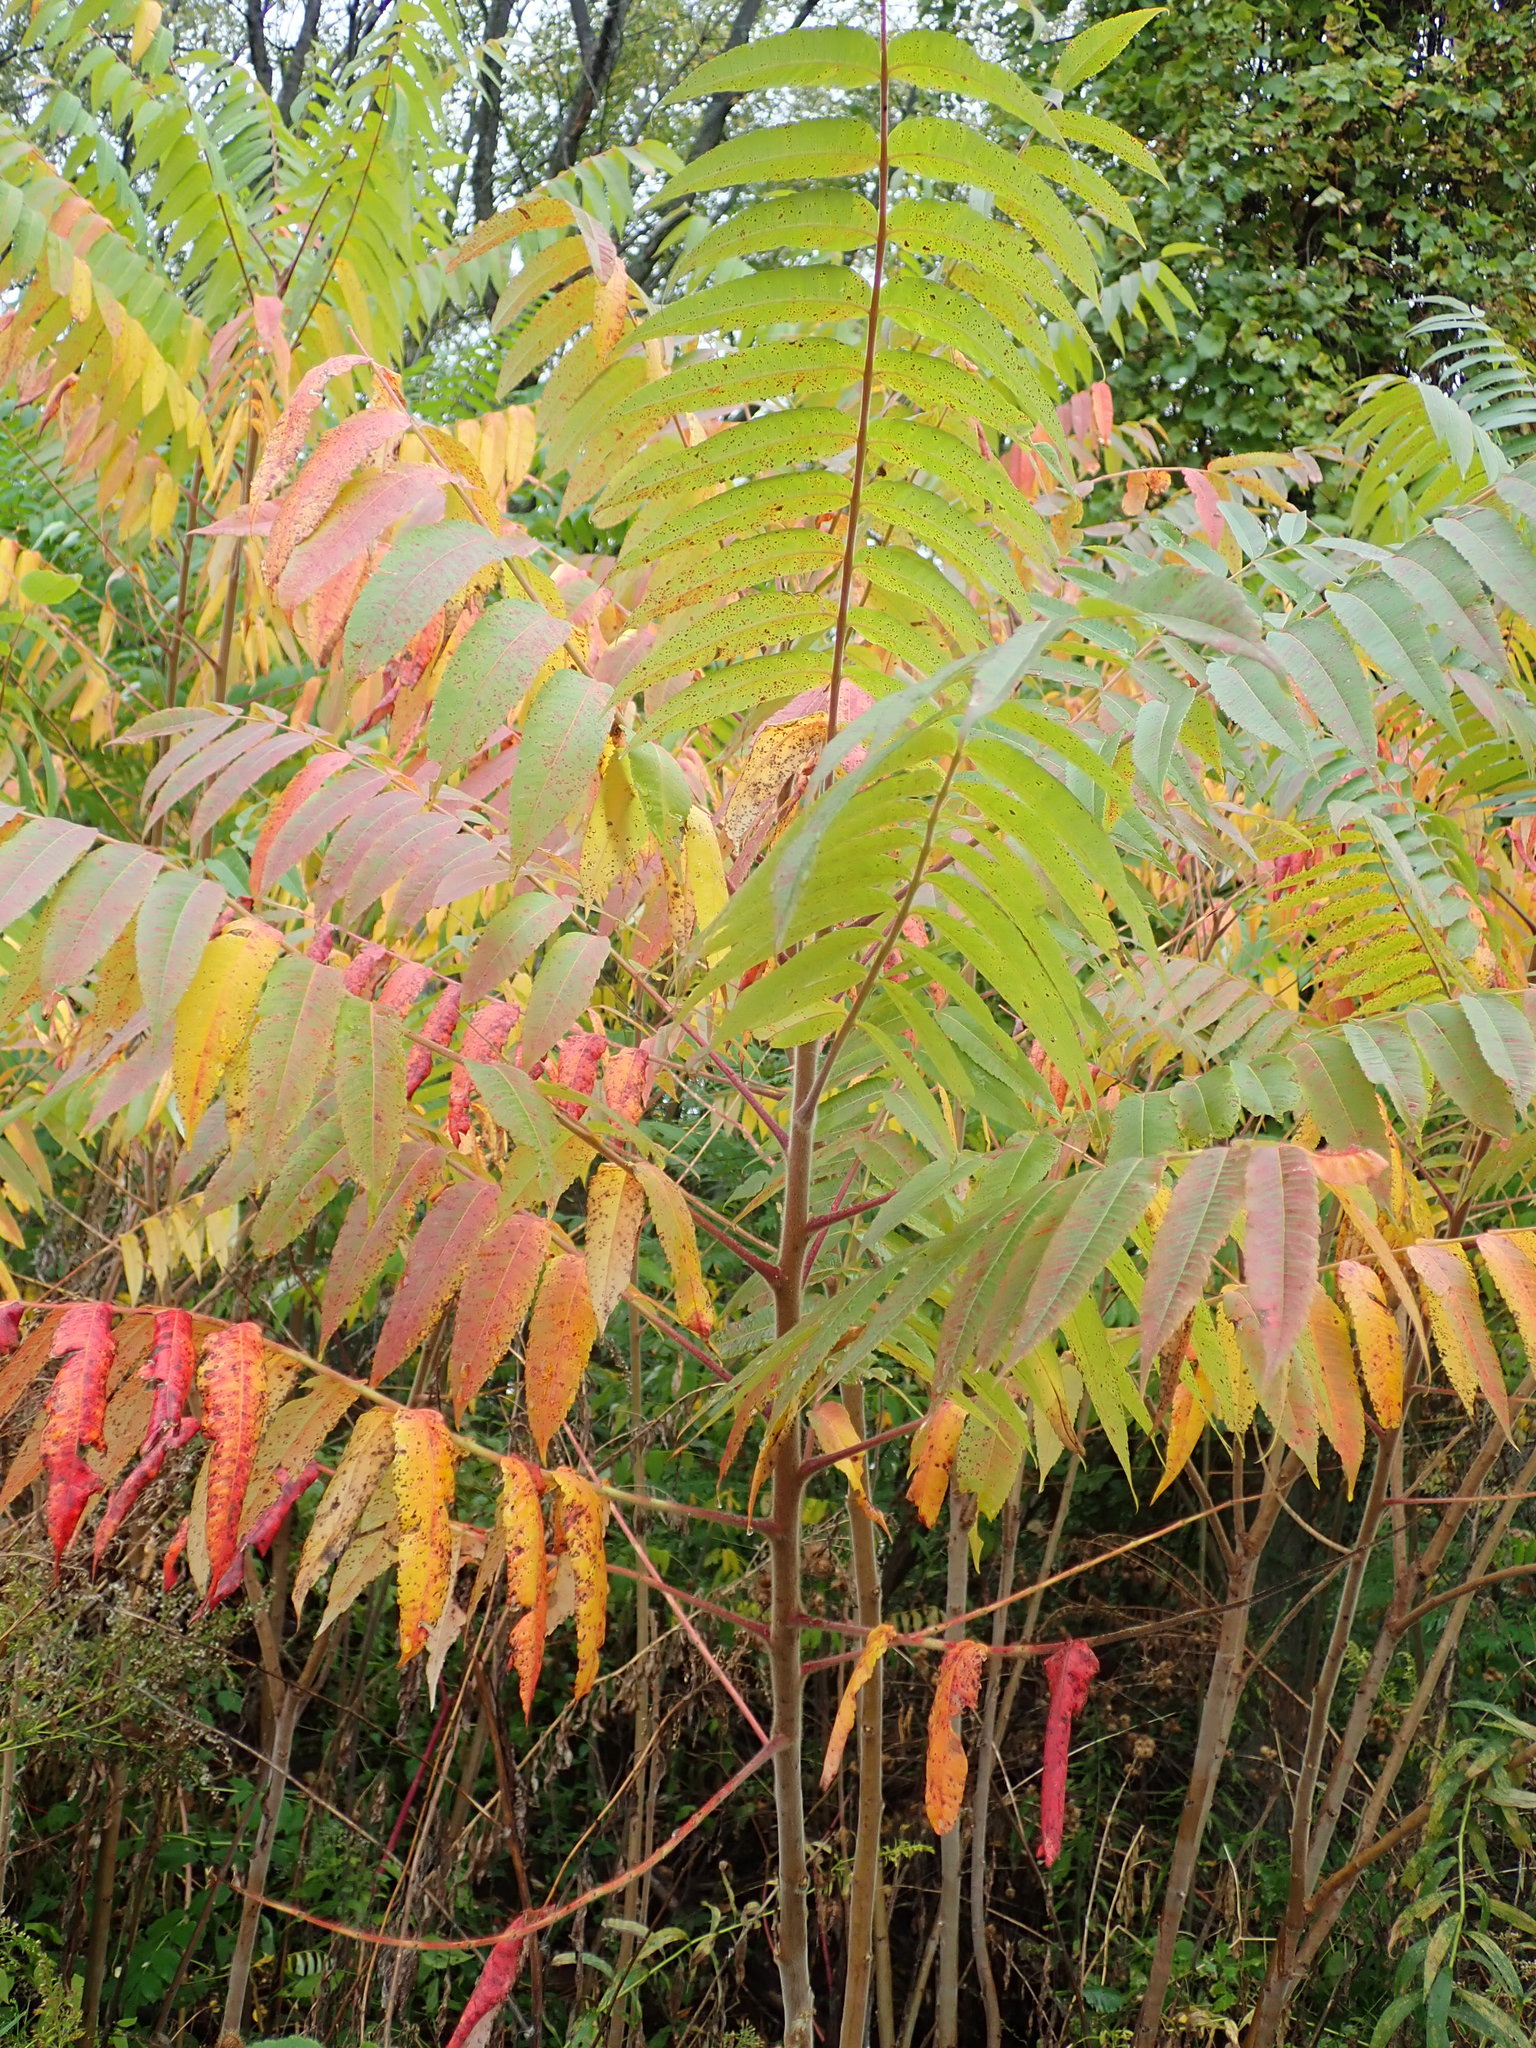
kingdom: Plantae
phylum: Tracheophyta
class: Magnoliopsida
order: Sapindales
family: Anacardiaceae
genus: Rhus
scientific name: Rhus typhina
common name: Staghorn sumac
